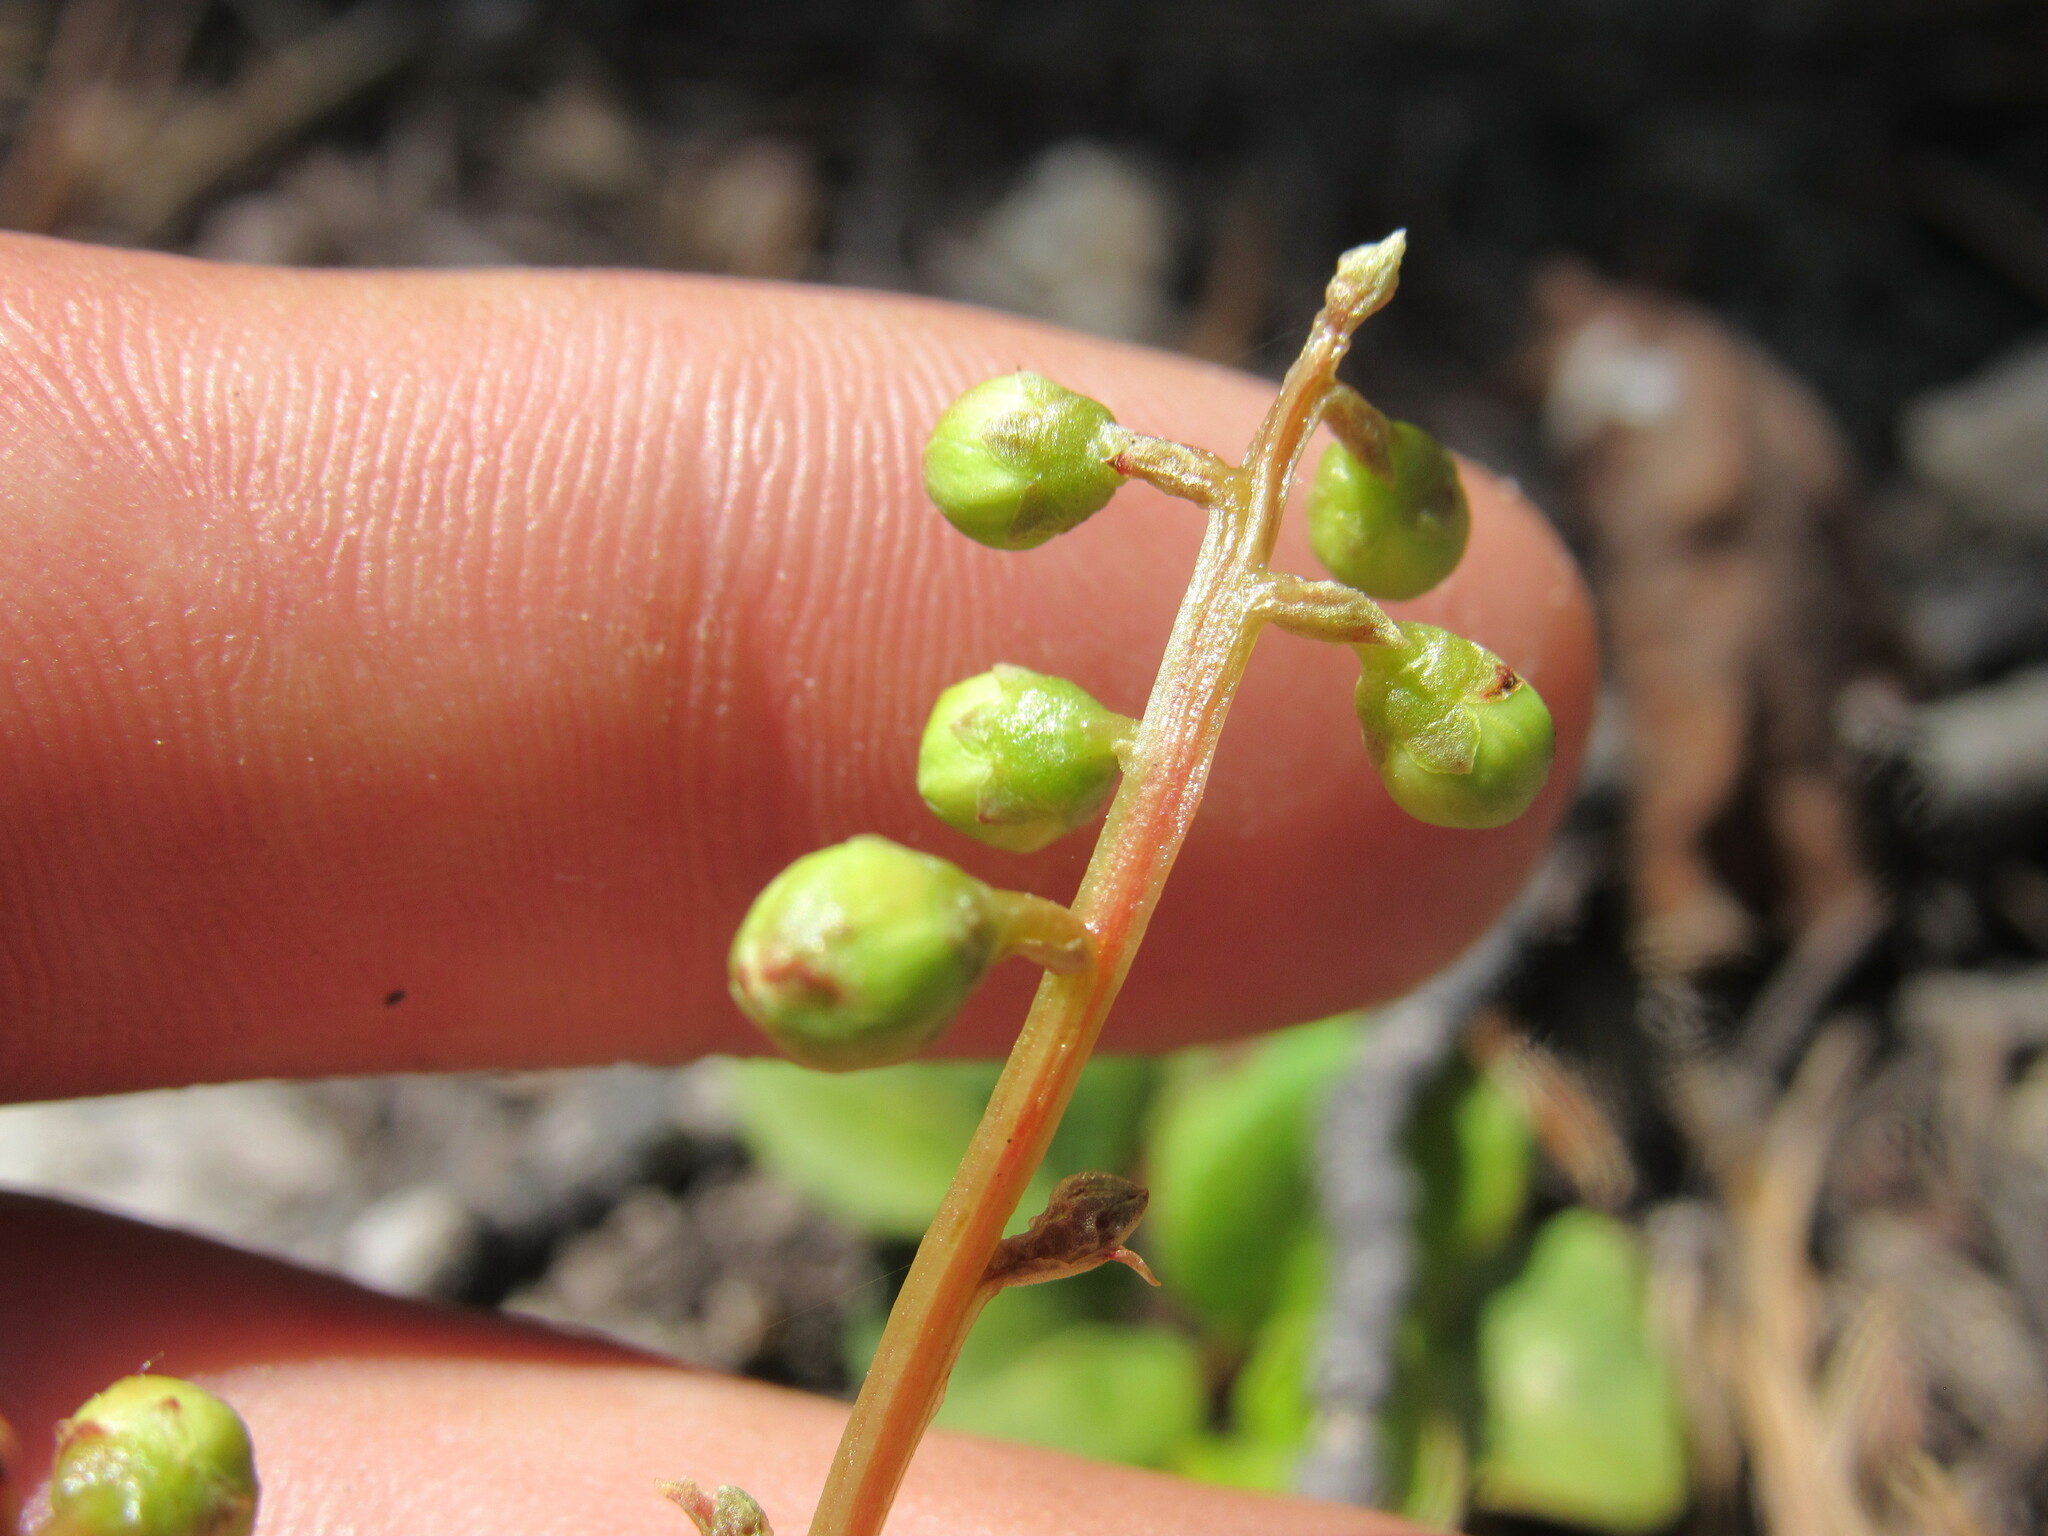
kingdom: Plantae
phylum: Tracheophyta
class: Magnoliopsida
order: Ericales
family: Ericaceae
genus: Pyrola
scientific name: Pyrola chlorantha
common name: Green wintergreen
